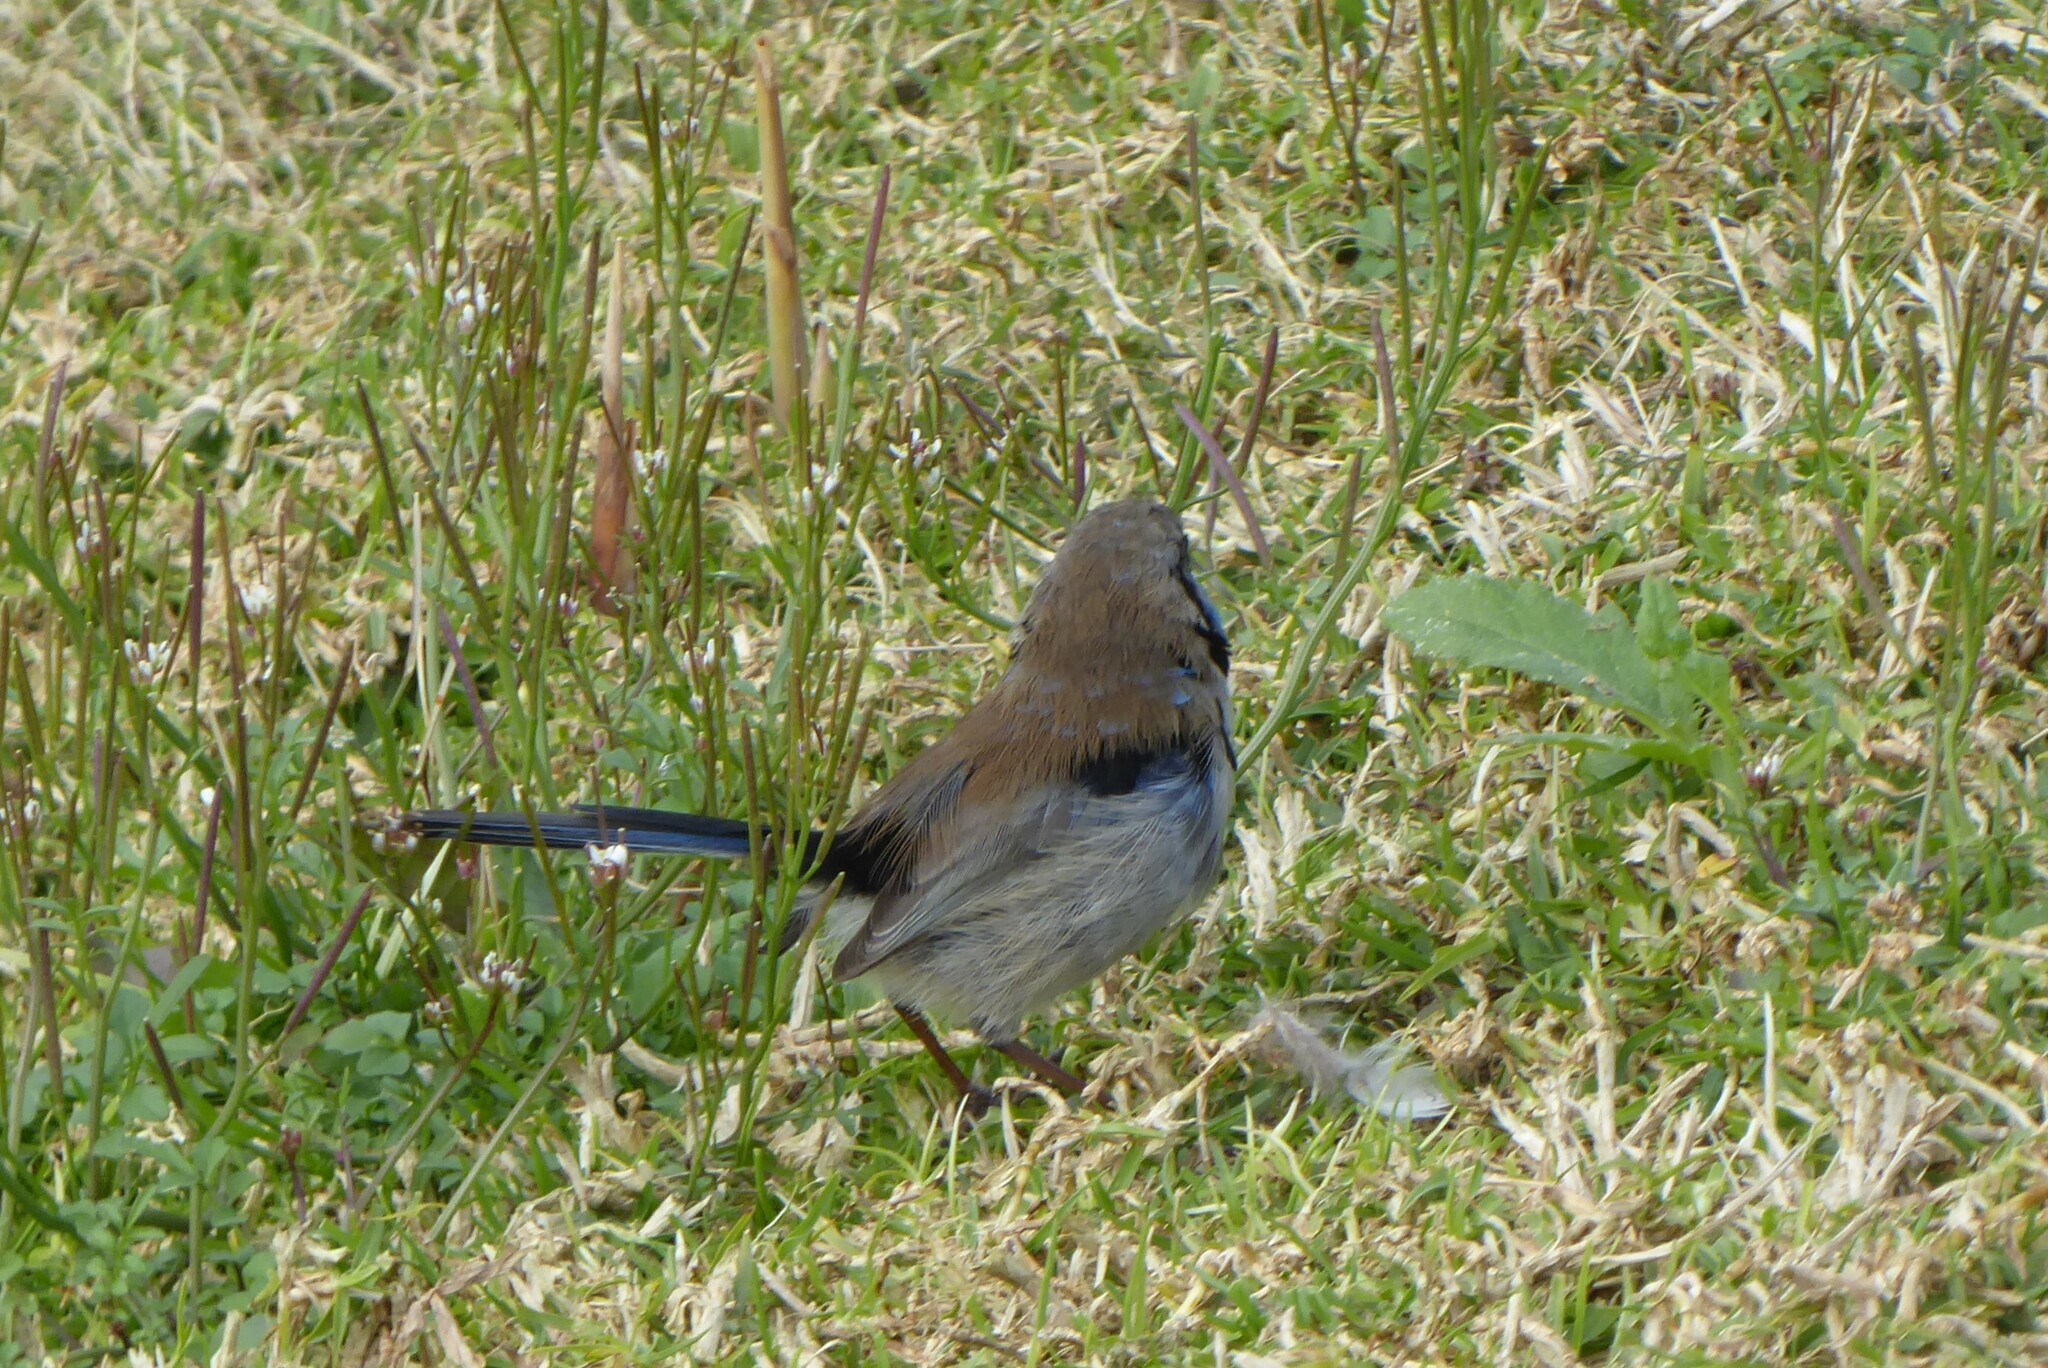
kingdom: Animalia
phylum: Chordata
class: Aves
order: Passeriformes
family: Maluridae
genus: Malurus
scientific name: Malurus cyaneus
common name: Superb fairywren
